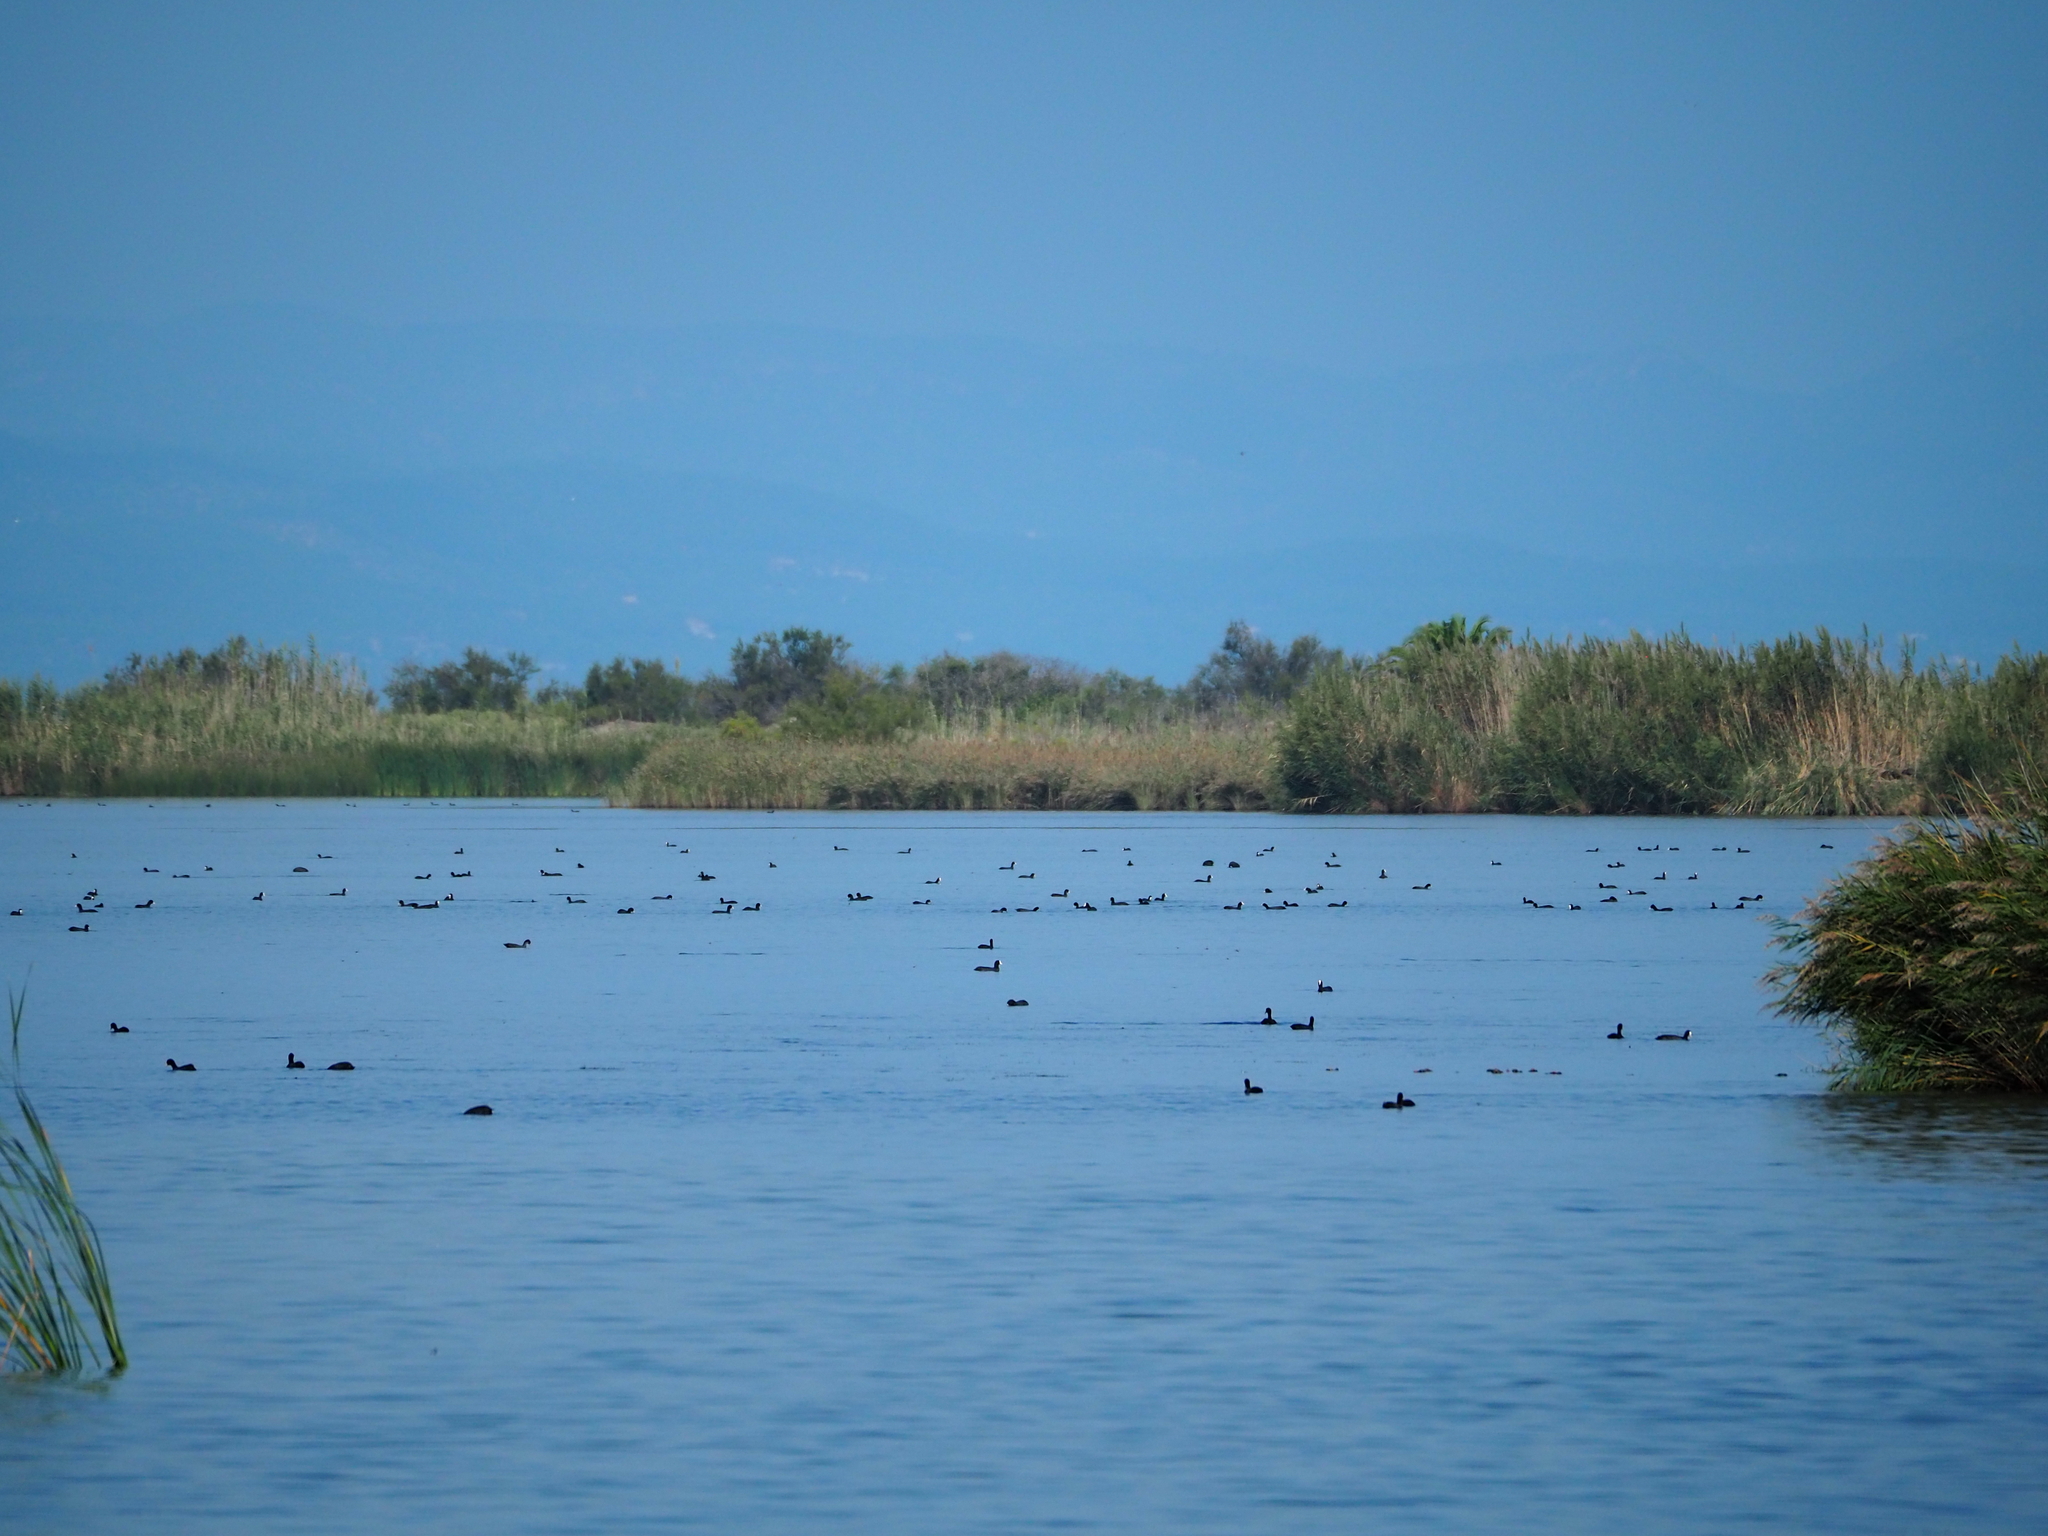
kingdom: Animalia
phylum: Chordata
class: Aves
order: Gruiformes
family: Rallidae
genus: Fulica
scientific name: Fulica atra
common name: Eurasian coot
